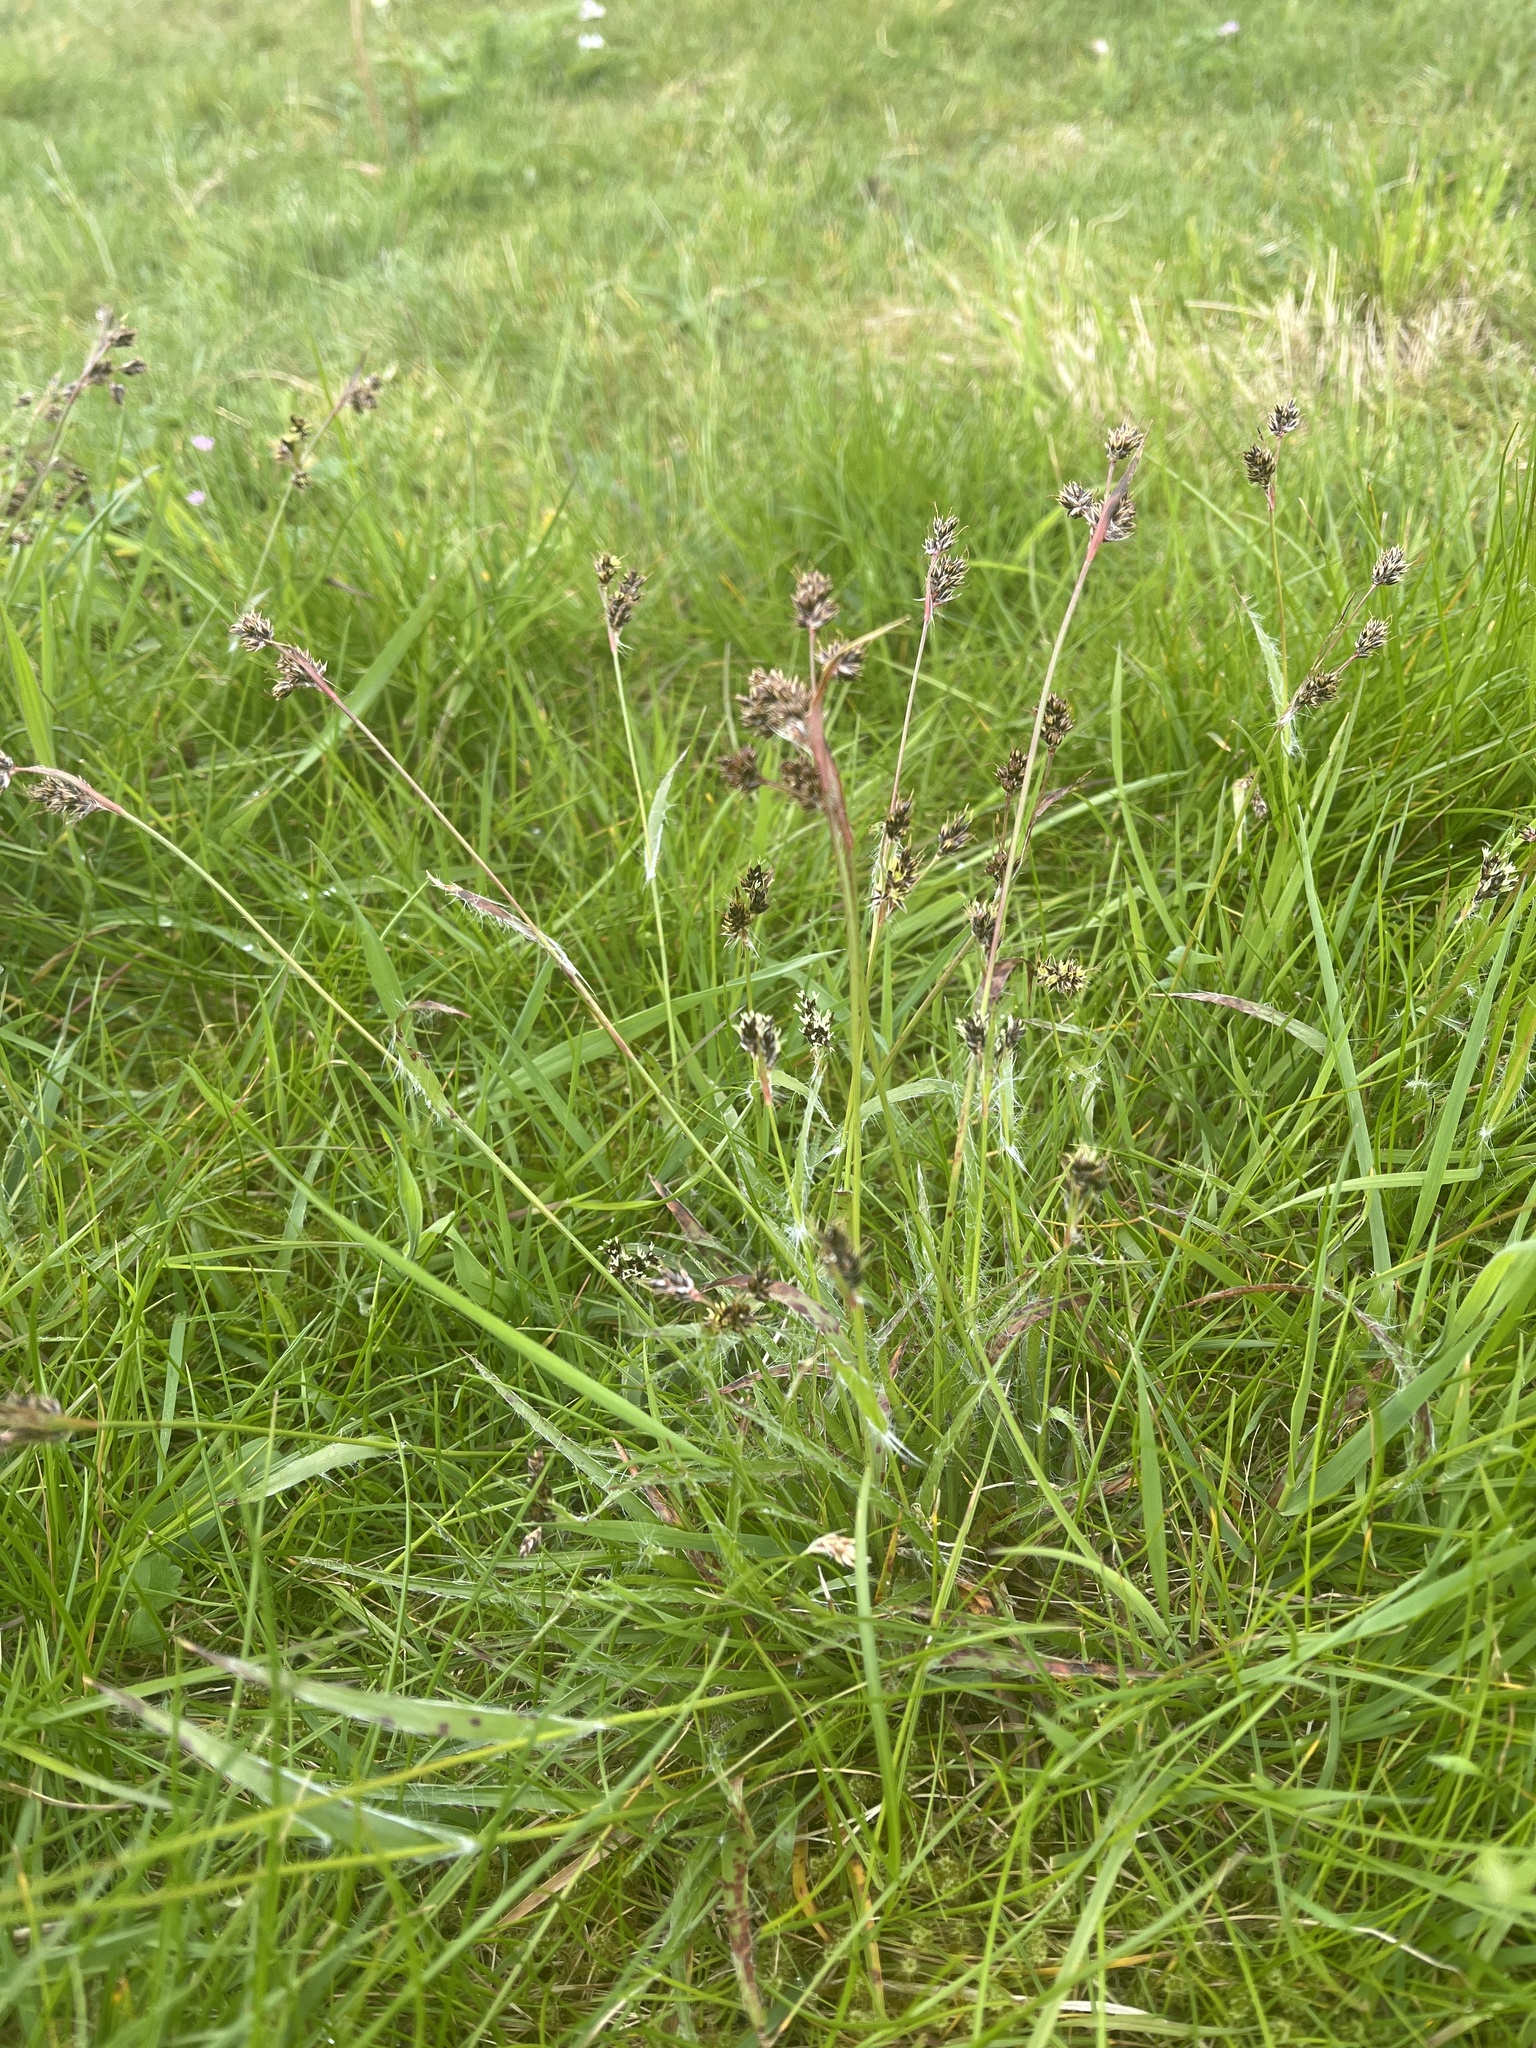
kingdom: Plantae
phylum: Tracheophyta
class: Liliopsida
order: Poales
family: Juncaceae
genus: Luzula
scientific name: Luzula campestris
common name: Field wood-rush
